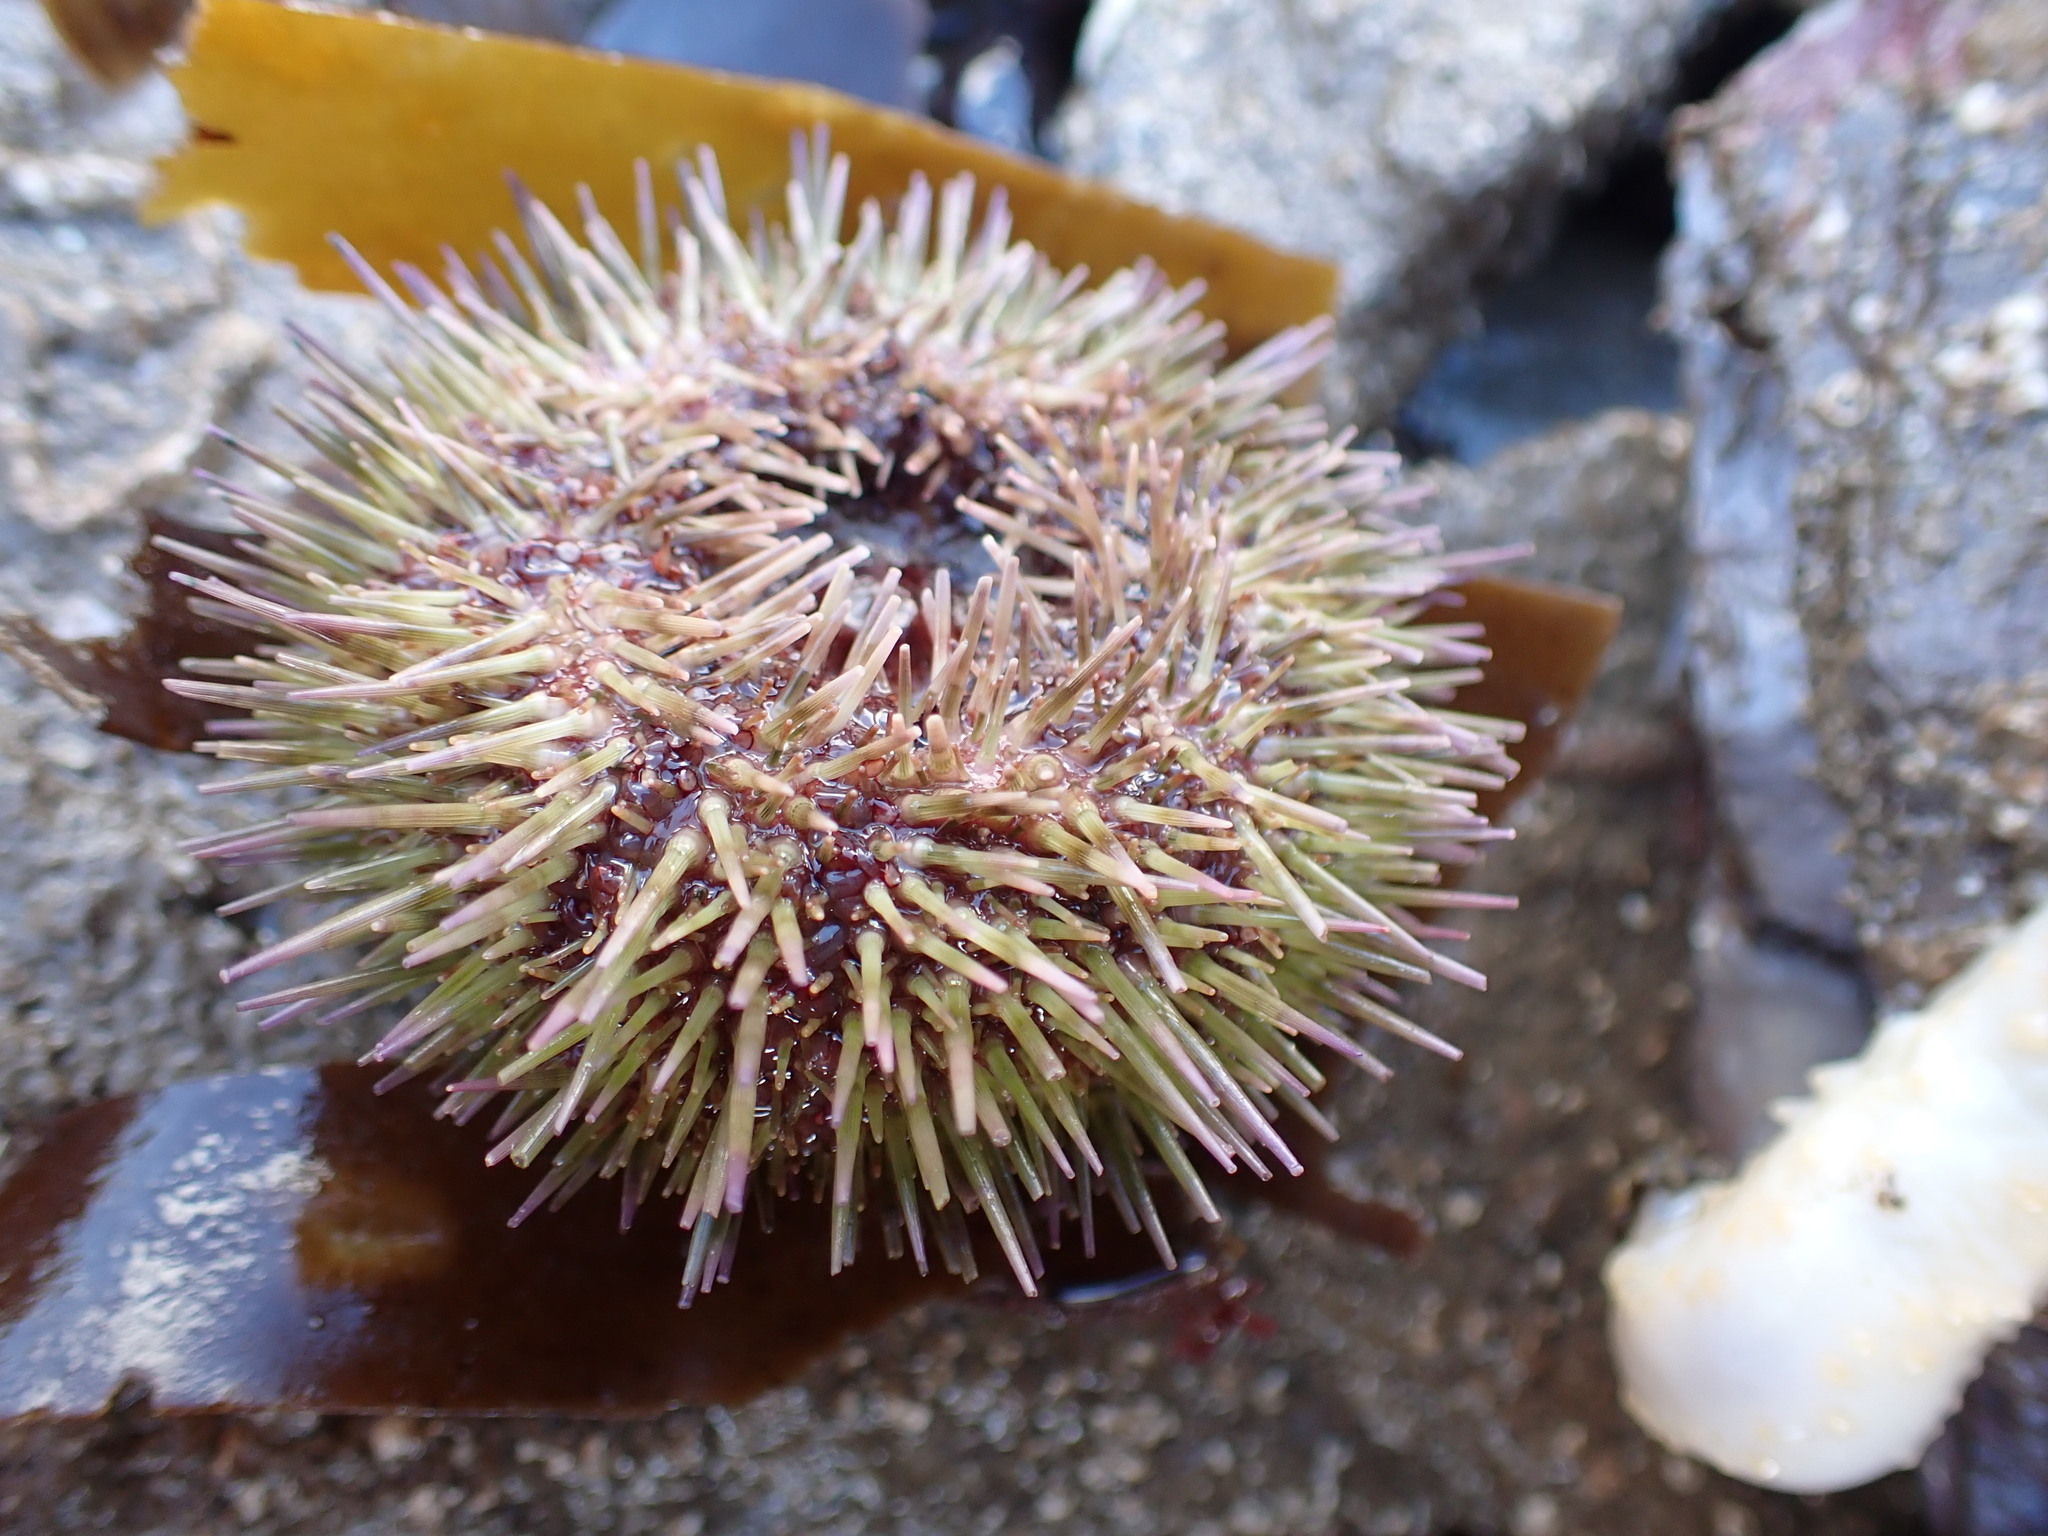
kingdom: Animalia
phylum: Echinodermata
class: Echinoidea
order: Camarodonta
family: Parechinidae
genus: Psammechinus
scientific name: Psammechinus miliaris
